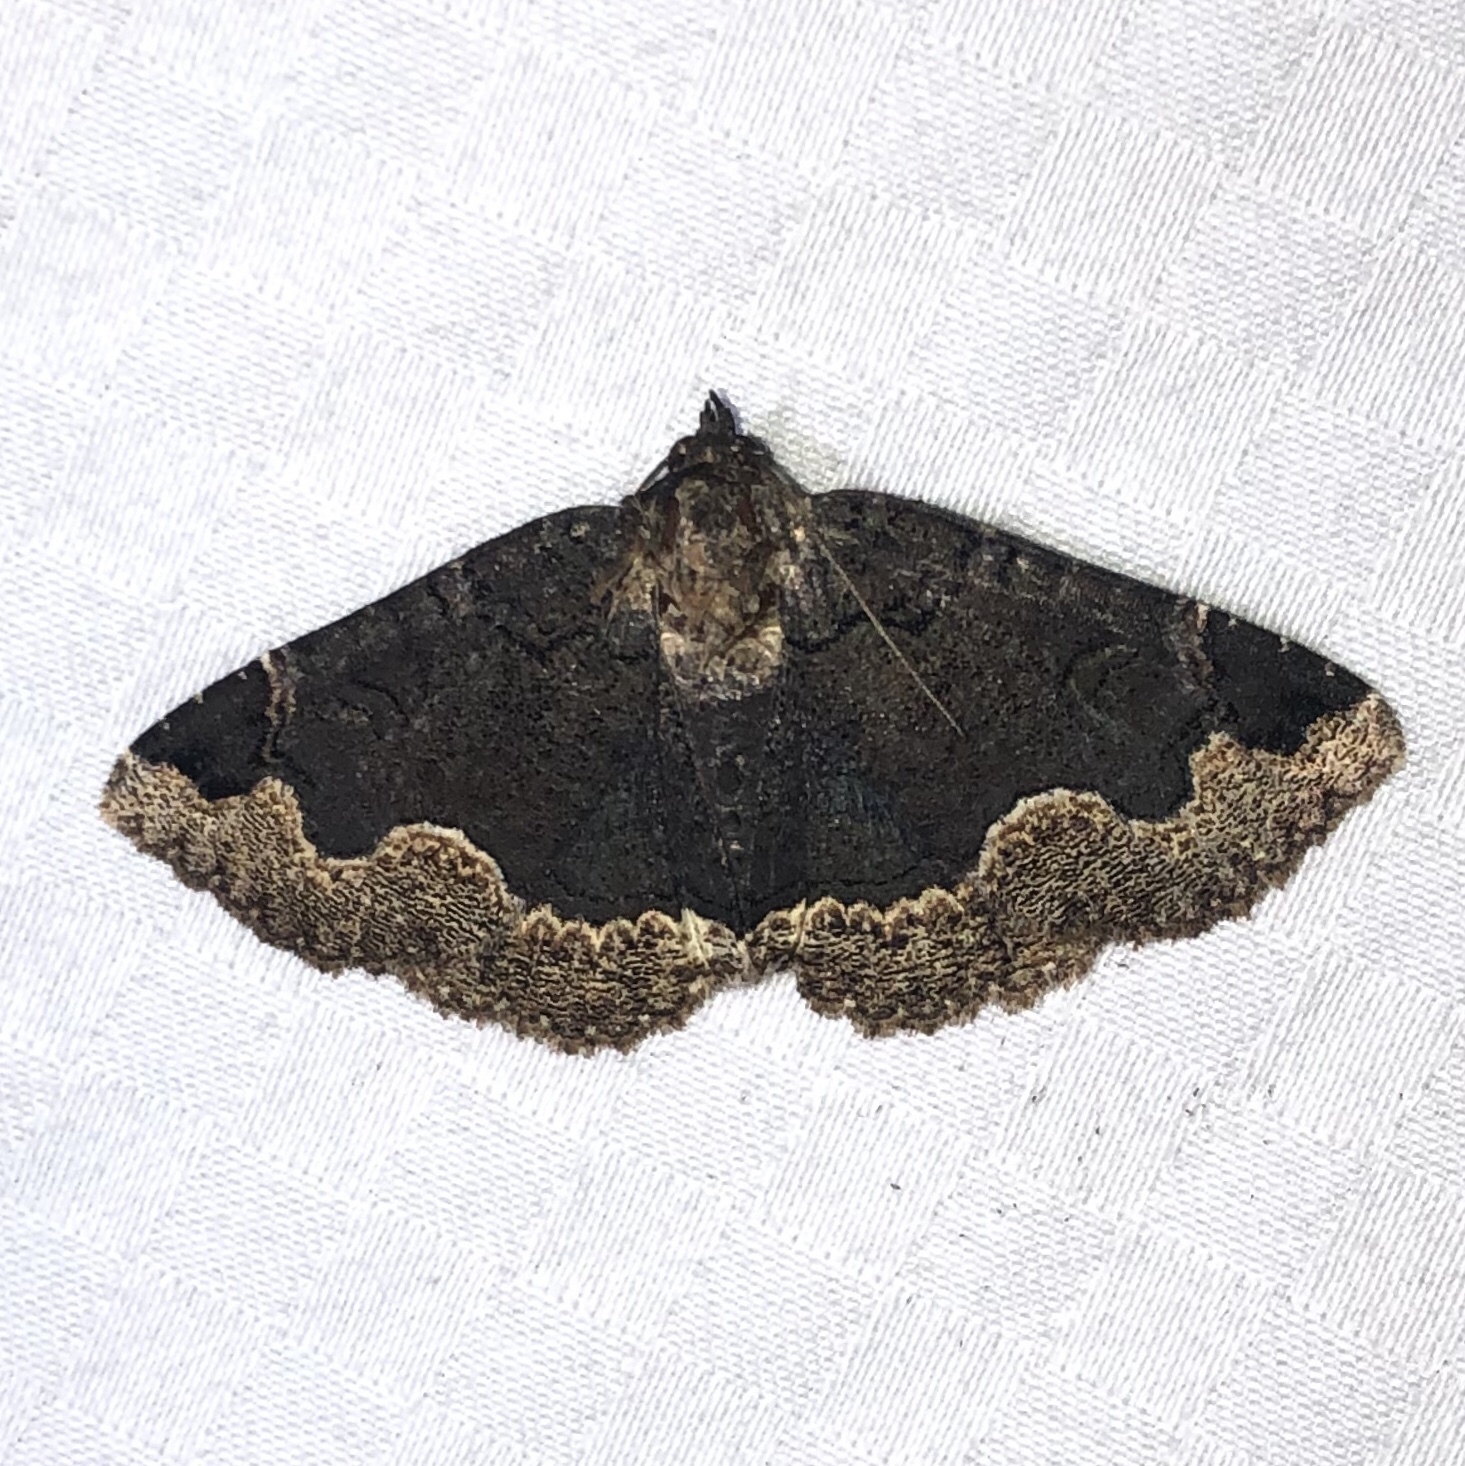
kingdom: Animalia
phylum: Arthropoda
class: Insecta
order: Lepidoptera
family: Erebidae
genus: Zale
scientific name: Zale horrida
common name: Horrid zale moth
